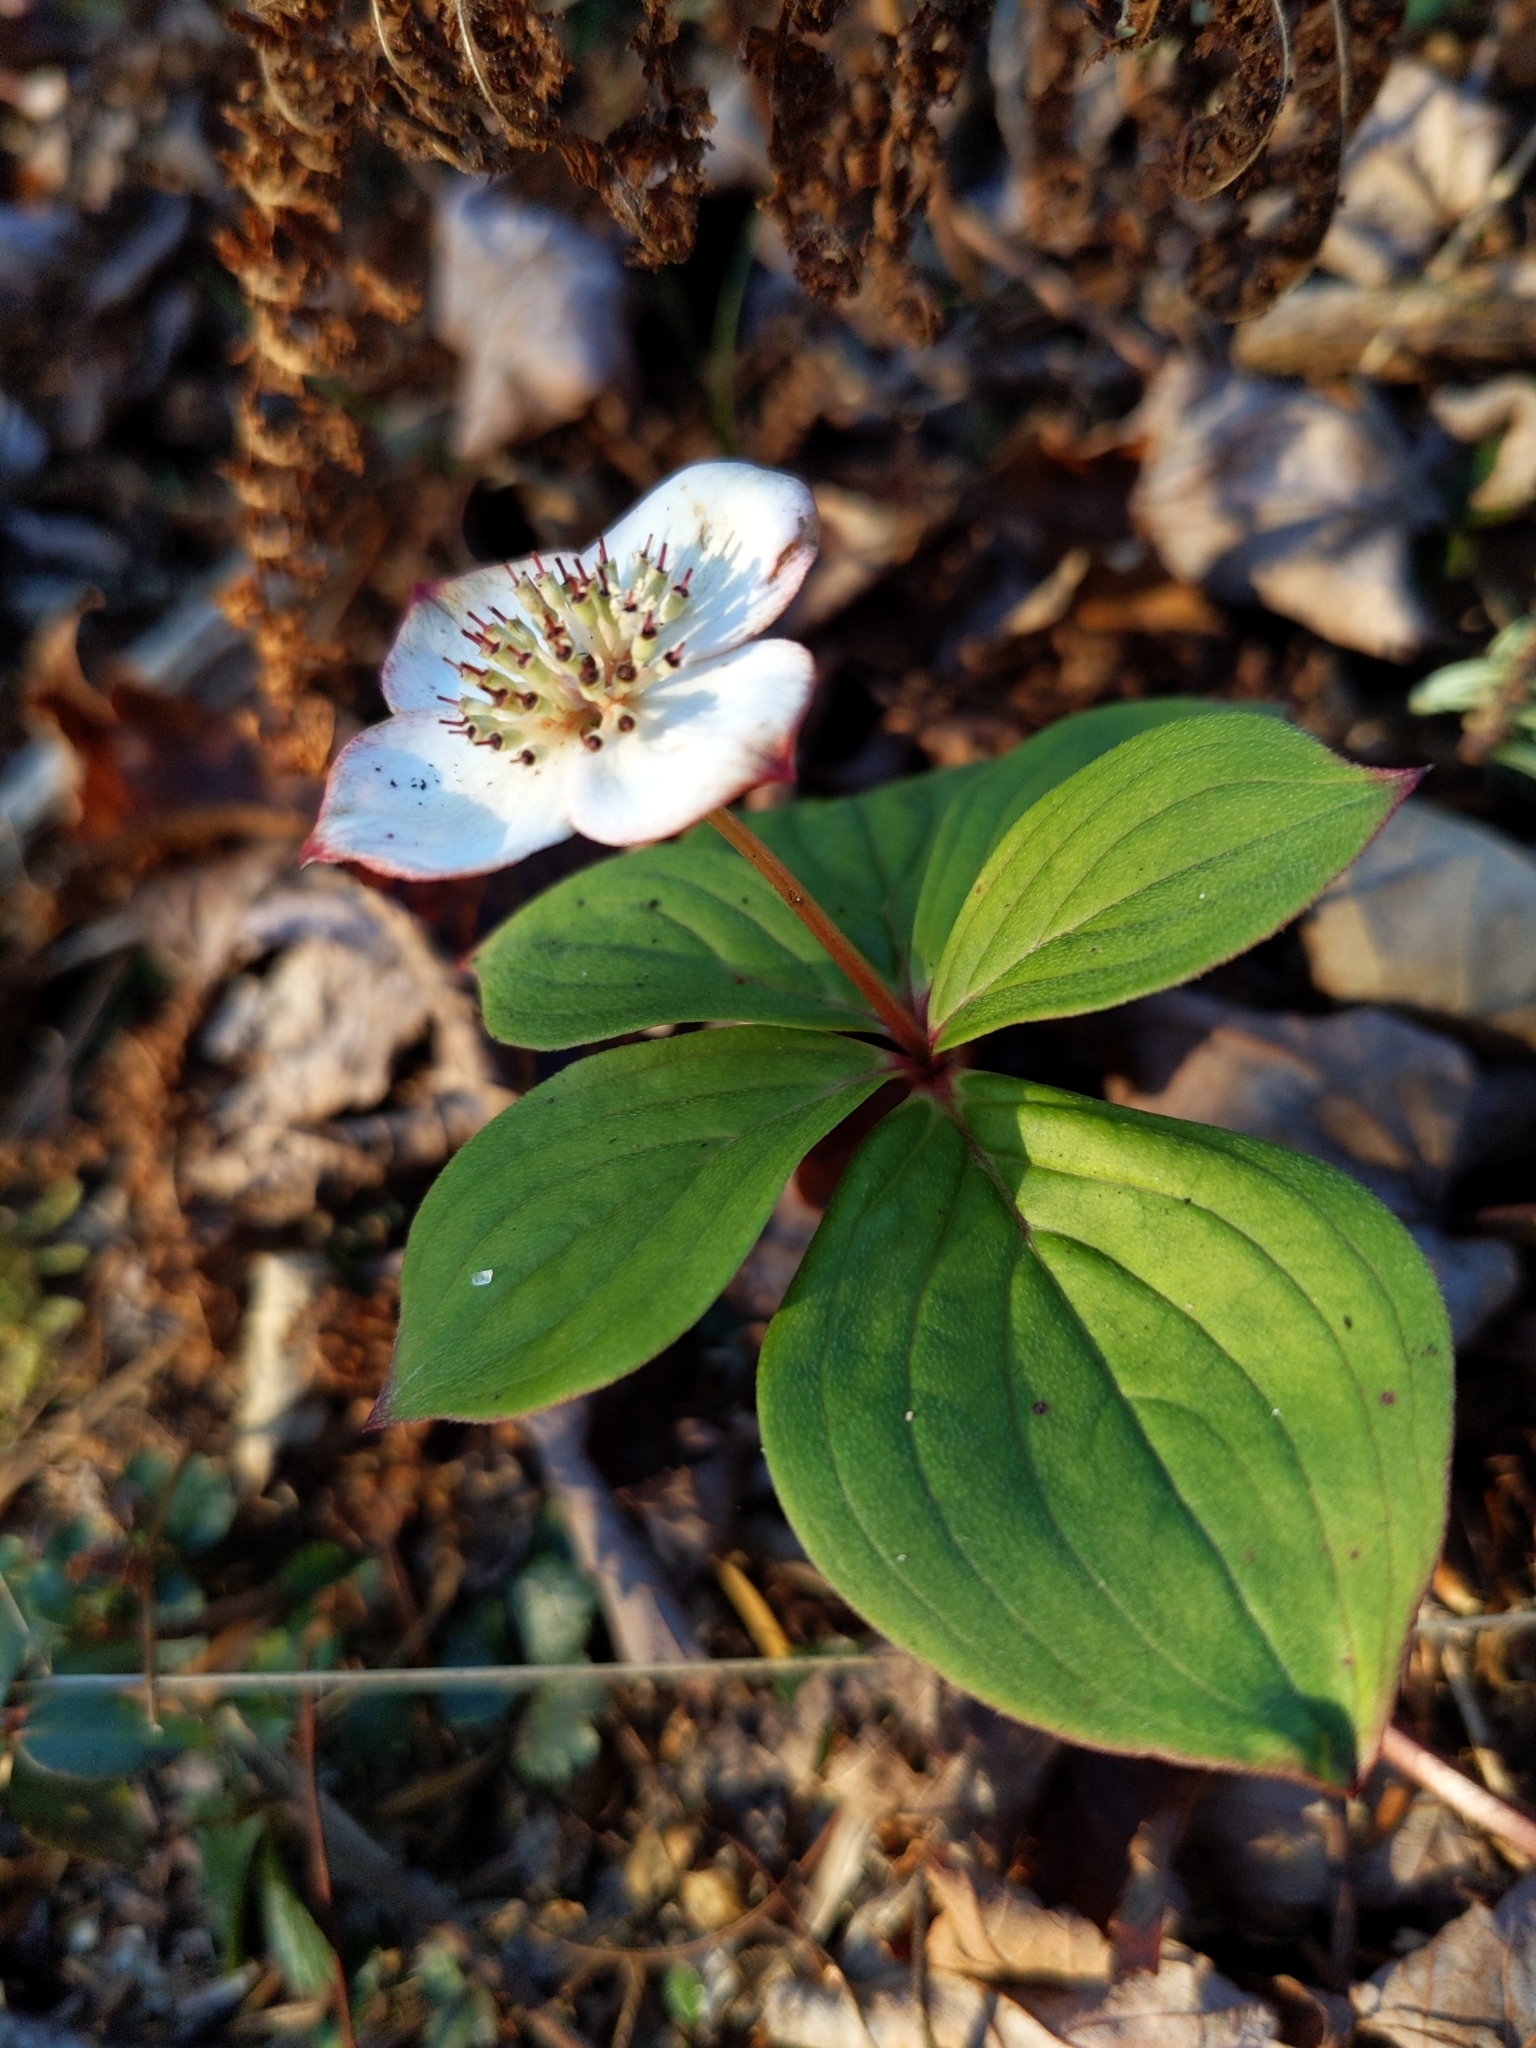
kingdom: Plantae
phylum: Tracheophyta
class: Magnoliopsida
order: Cornales
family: Cornaceae
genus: Cornus
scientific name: Cornus canadensis
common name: Creeping dogwood
